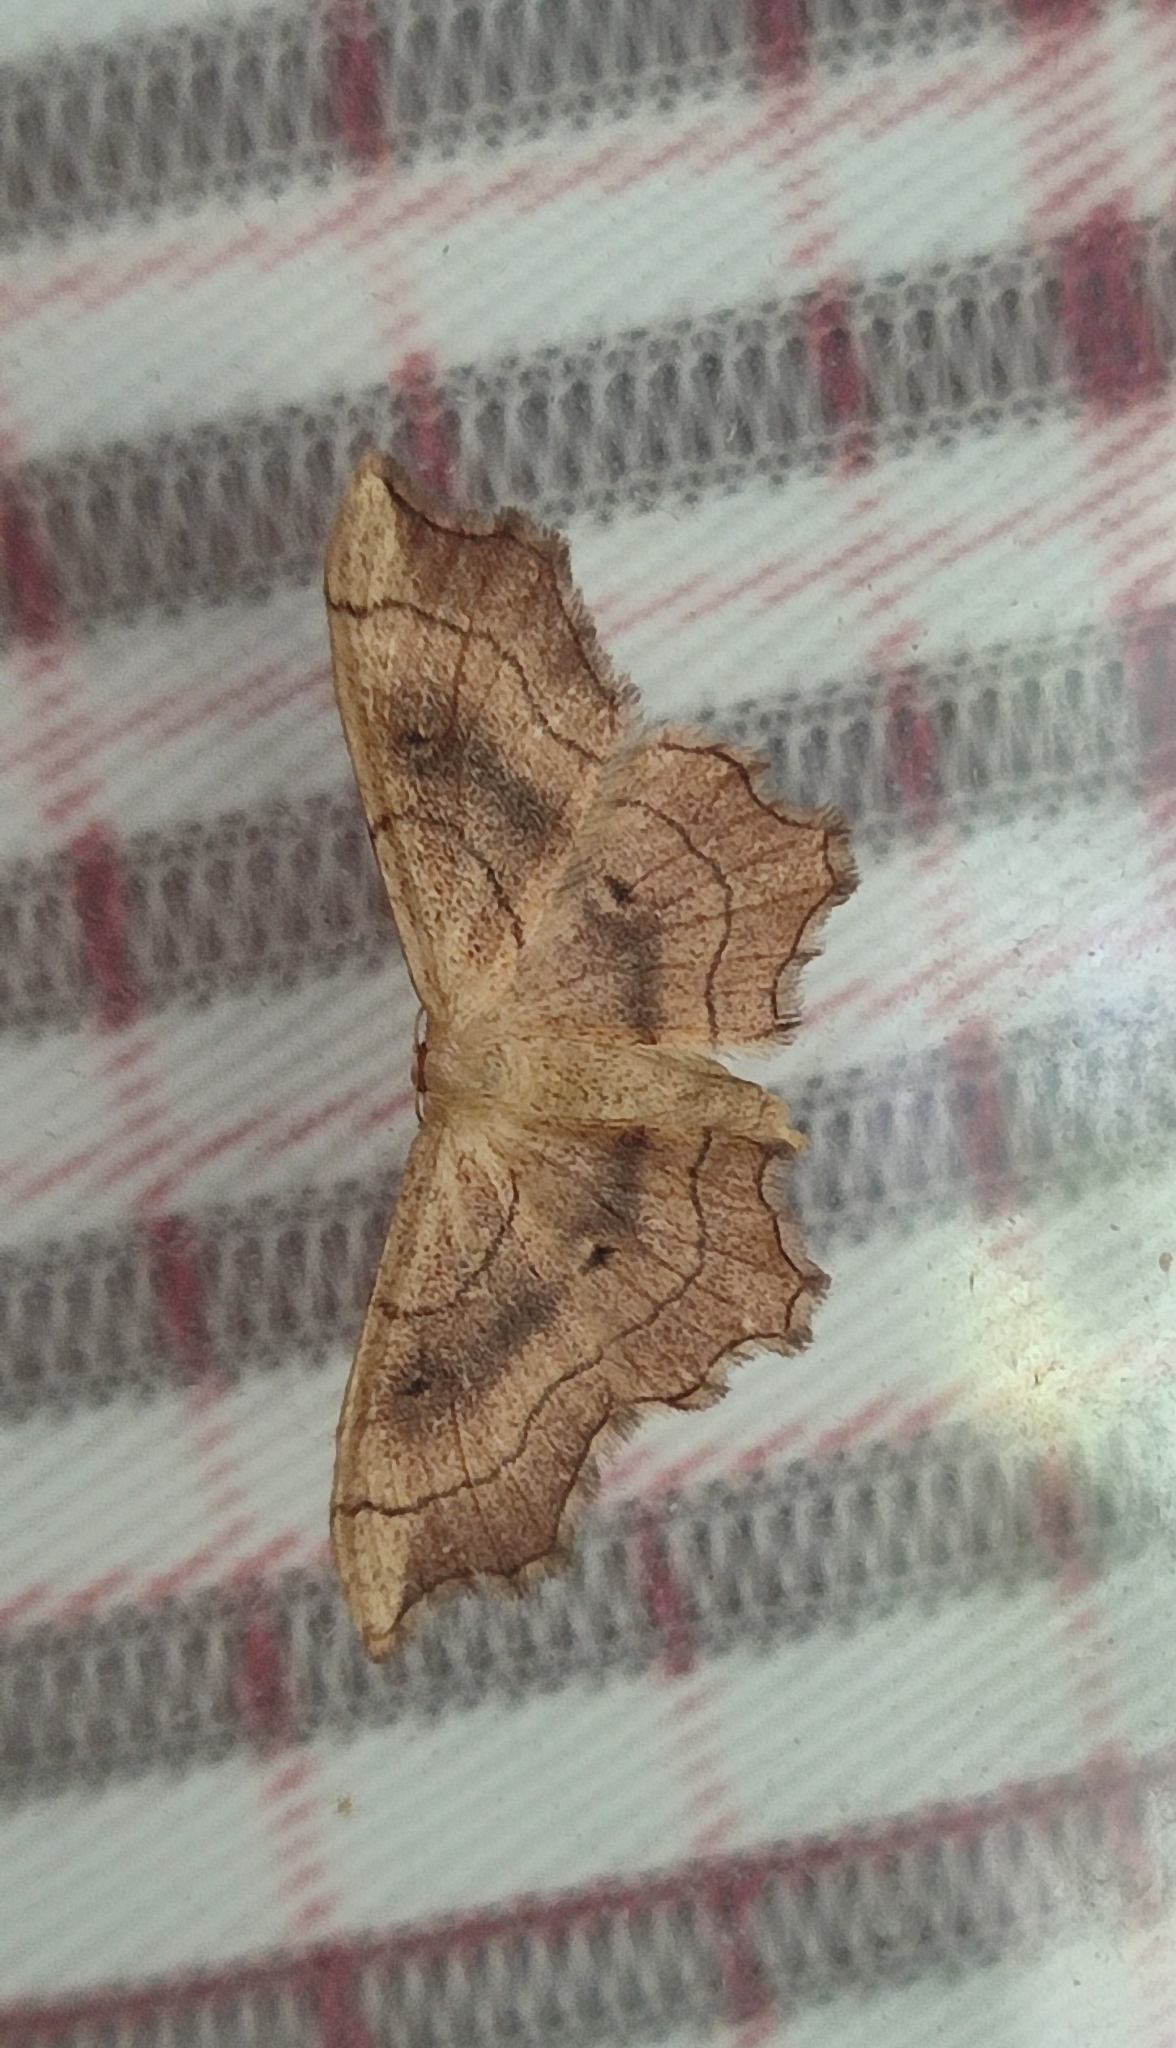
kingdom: Animalia
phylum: Arthropoda
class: Insecta
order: Lepidoptera
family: Geometridae
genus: Idaea
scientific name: Idaea emarginata
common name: Small scallop
